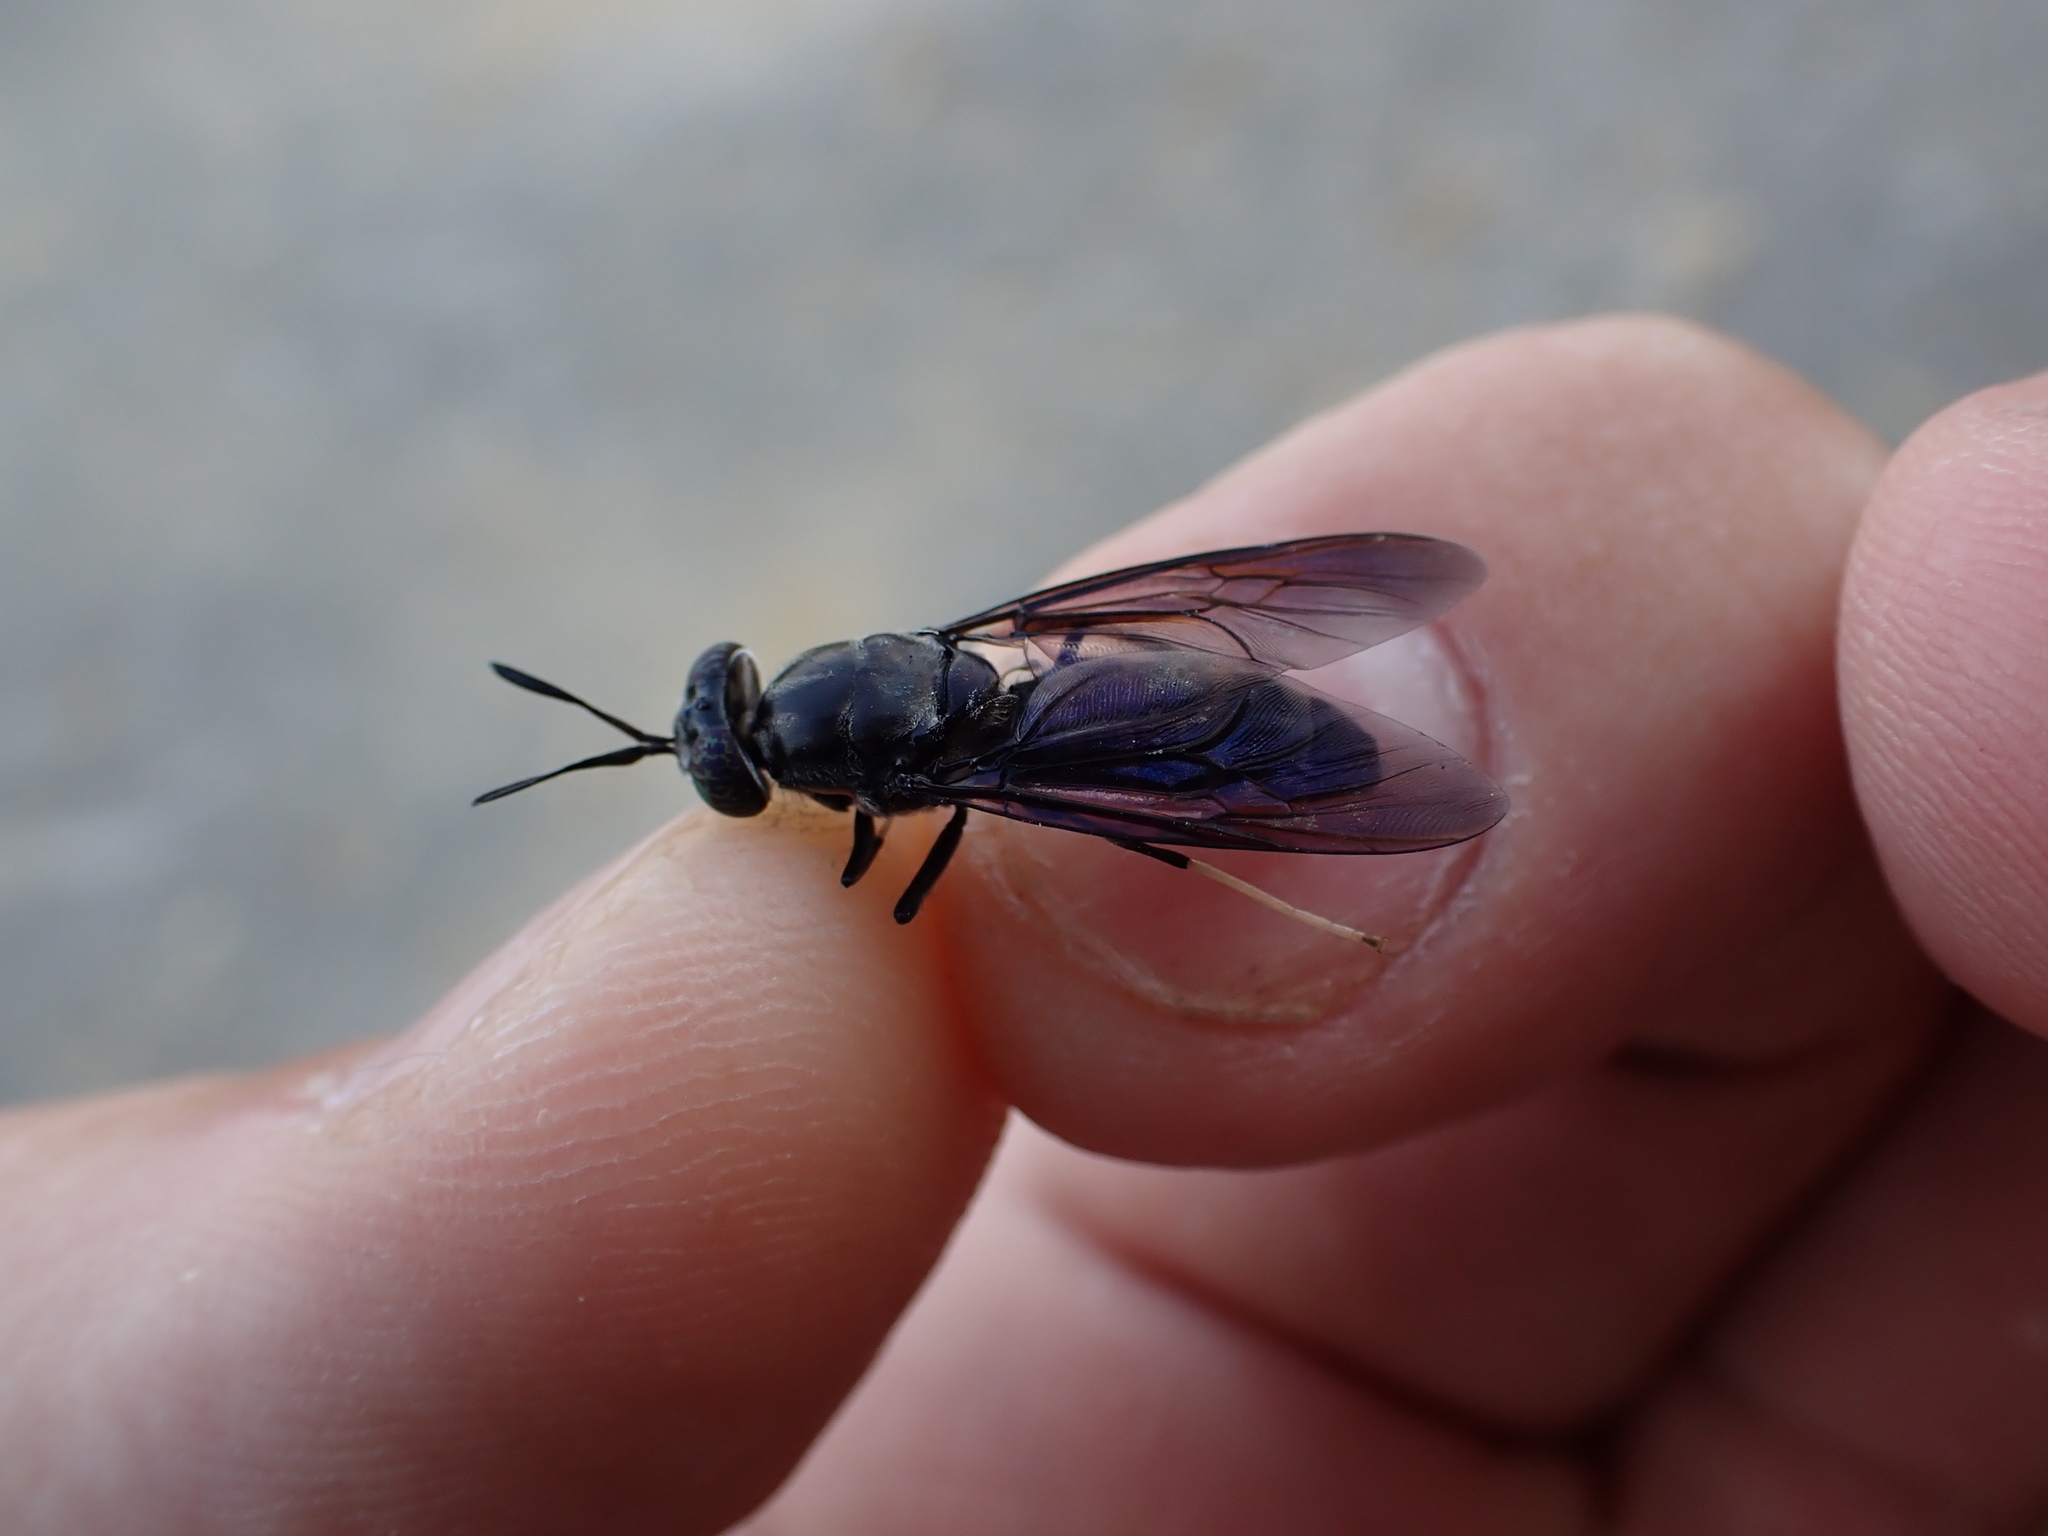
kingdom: Animalia
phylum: Arthropoda
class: Insecta
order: Diptera
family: Stratiomyidae
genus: Hermetia
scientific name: Hermetia illucens
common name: Black soldier fly
